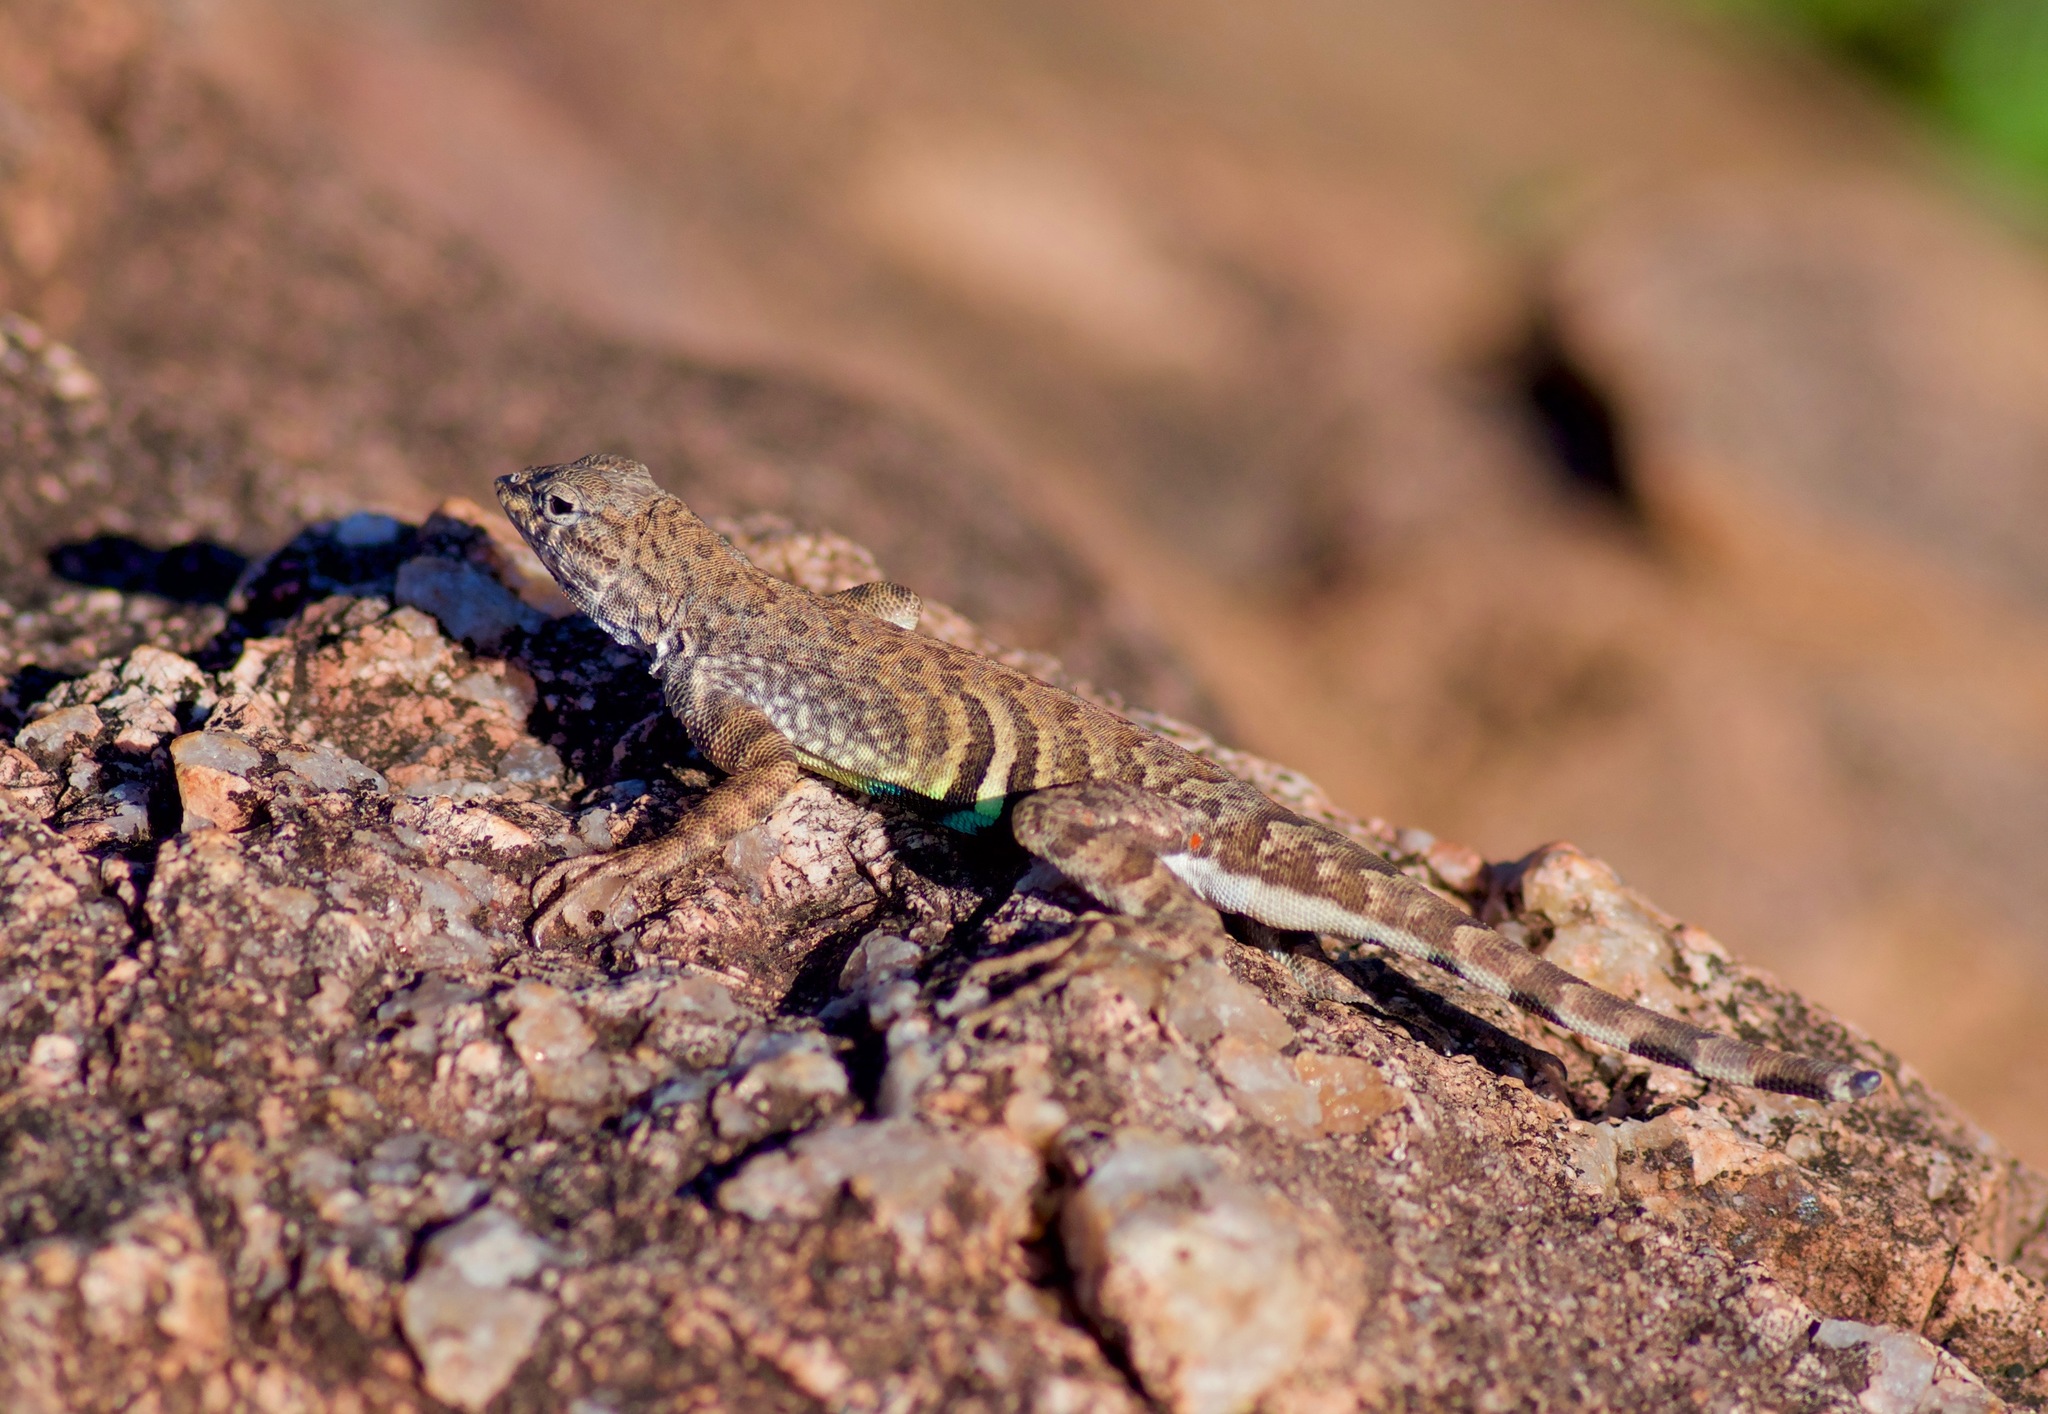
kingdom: Animalia
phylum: Chordata
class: Squamata
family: Phrynosomatidae
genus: Cophosaurus
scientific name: Cophosaurus texanus
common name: Greater earless lizard
